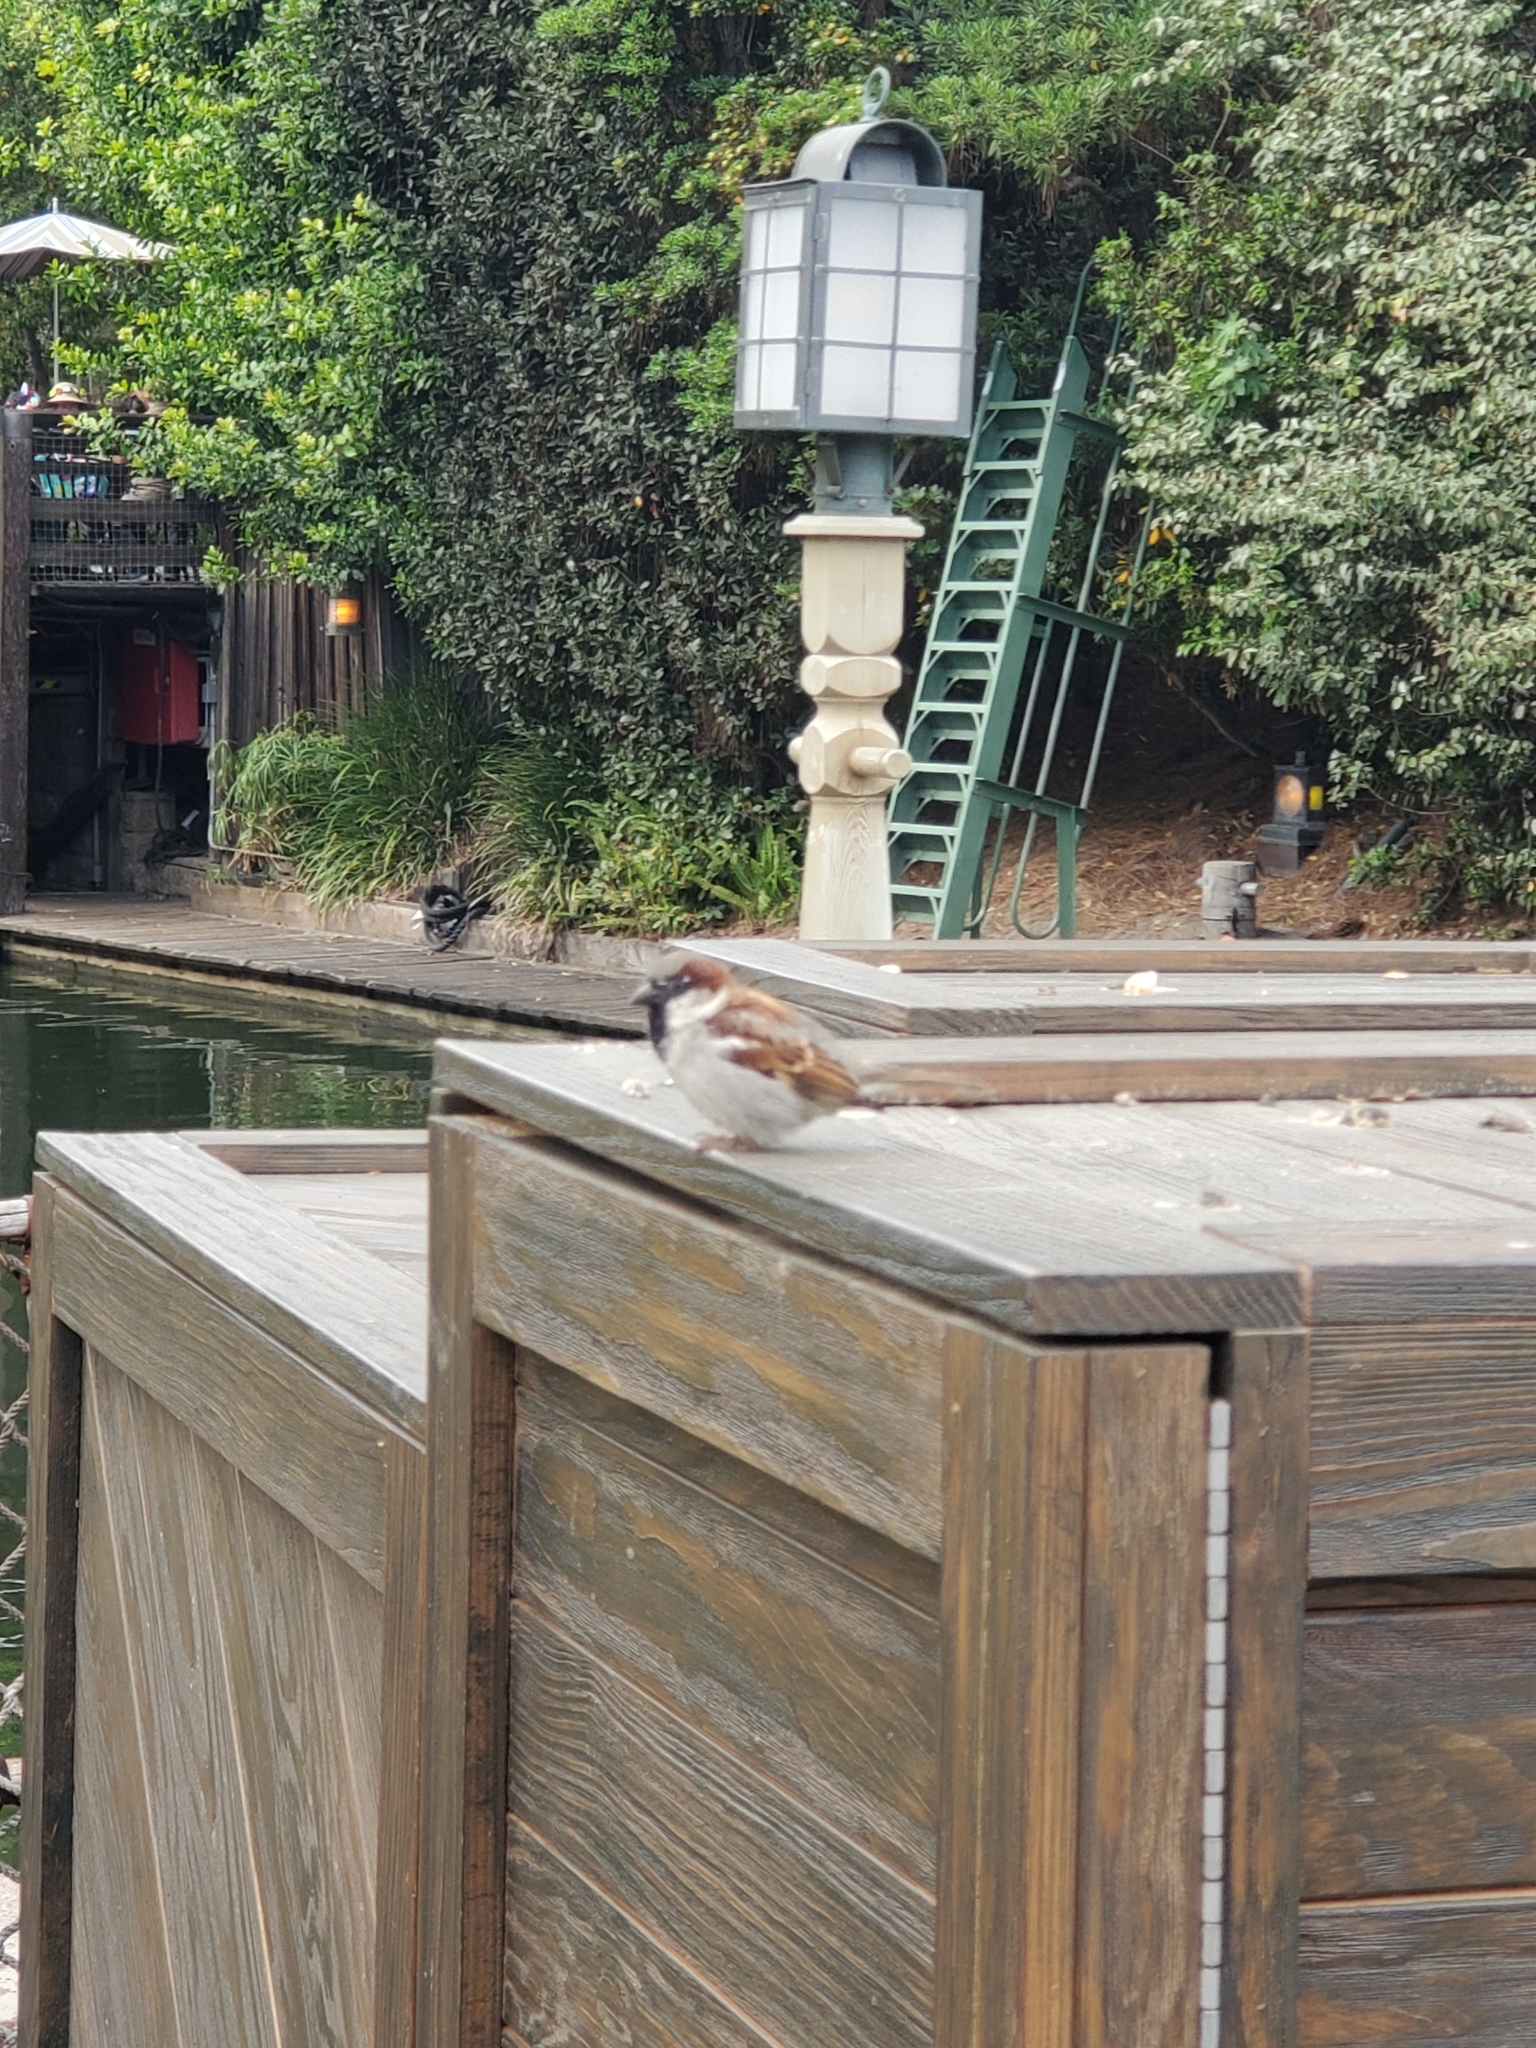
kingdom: Animalia
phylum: Chordata
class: Aves
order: Passeriformes
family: Passeridae
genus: Passer
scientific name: Passer domesticus
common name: House sparrow
